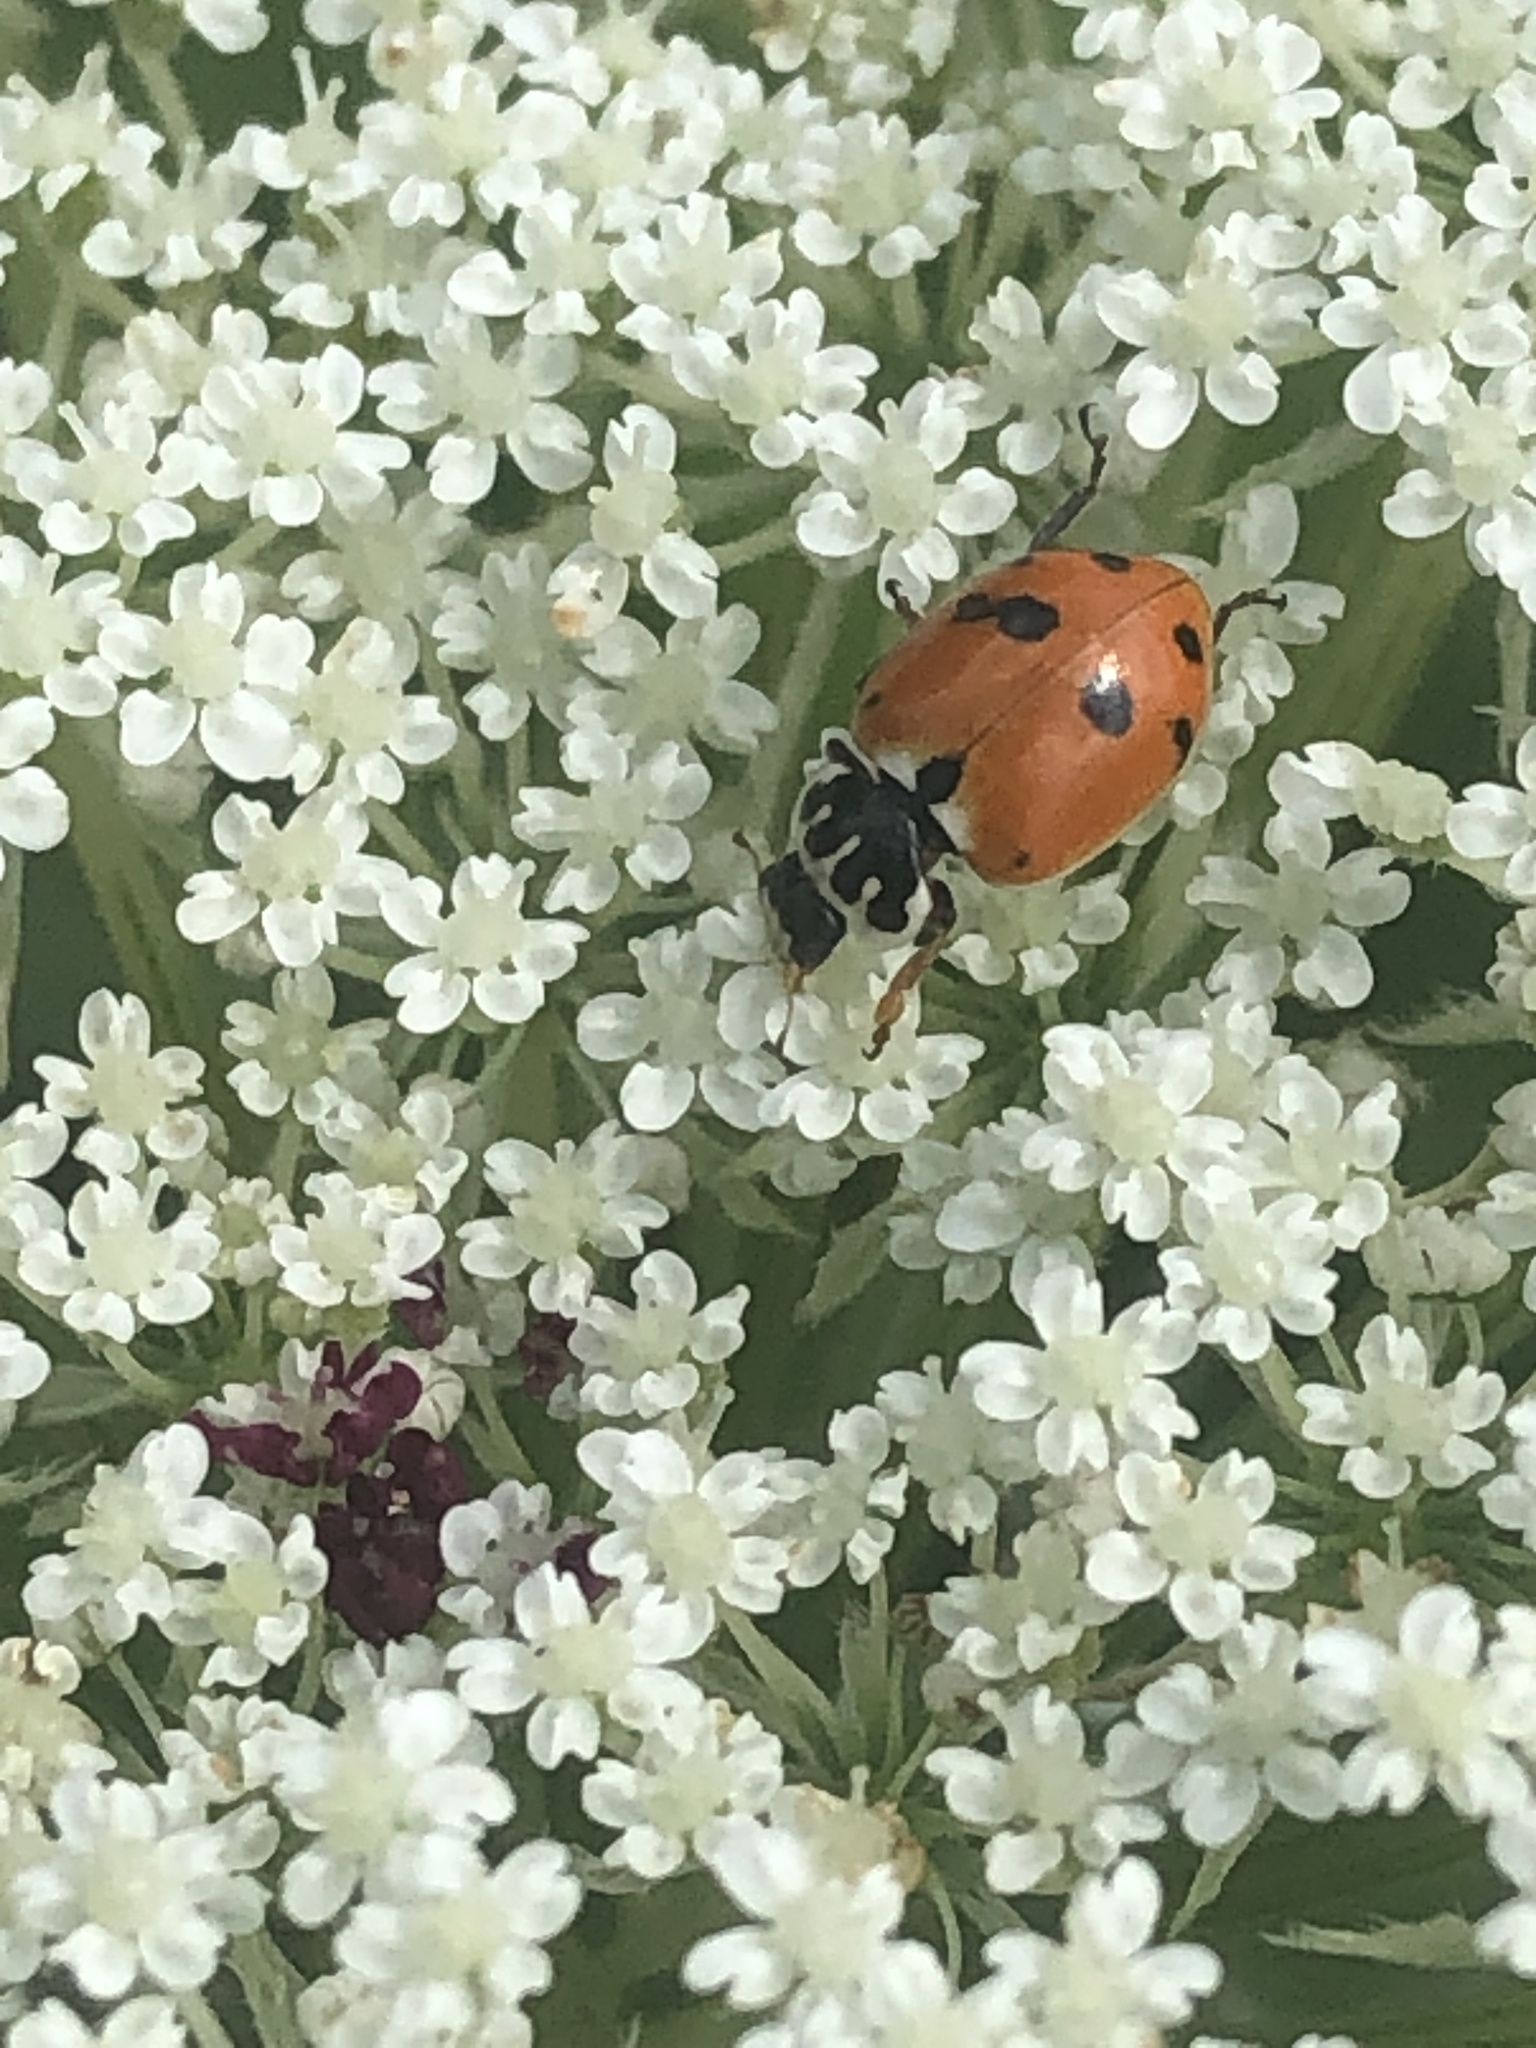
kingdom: Animalia
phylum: Arthropoda
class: Insecta
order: Coleoptera
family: Coccinellidae
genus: Hippodamia
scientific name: Hippodamia variegata
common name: Ladybird beetle
